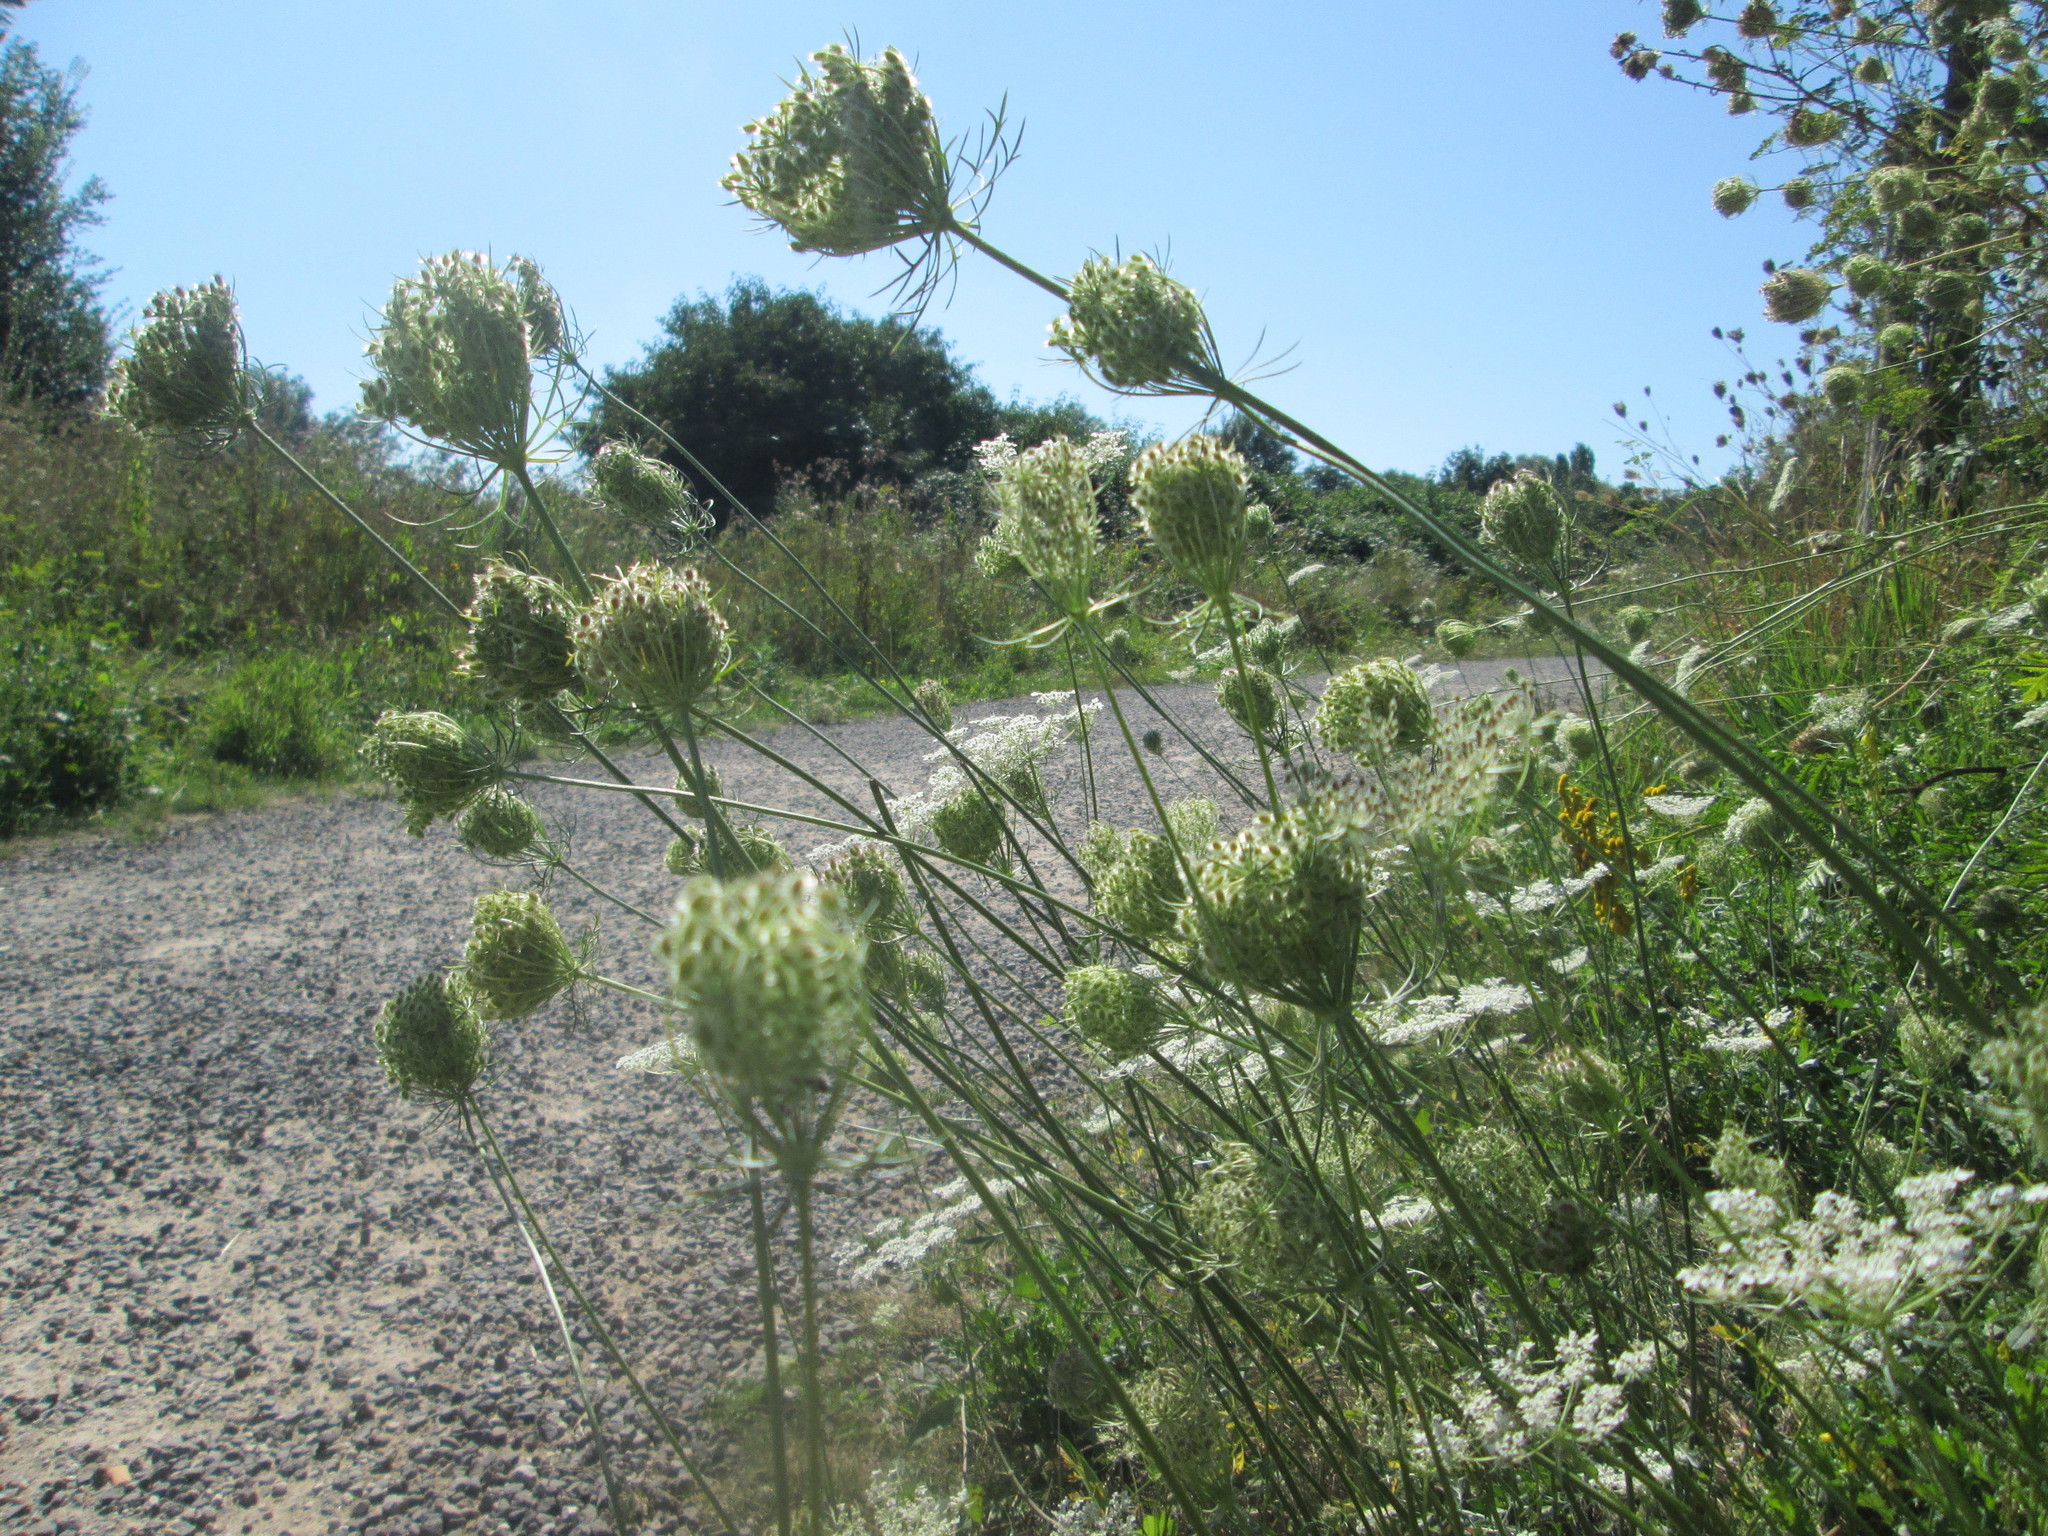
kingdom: Plantae
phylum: Tracheophyta
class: Magnoliopsida
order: Apiales
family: Apiaceae
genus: Daucus
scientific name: Daucus carota
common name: Wild carrot
